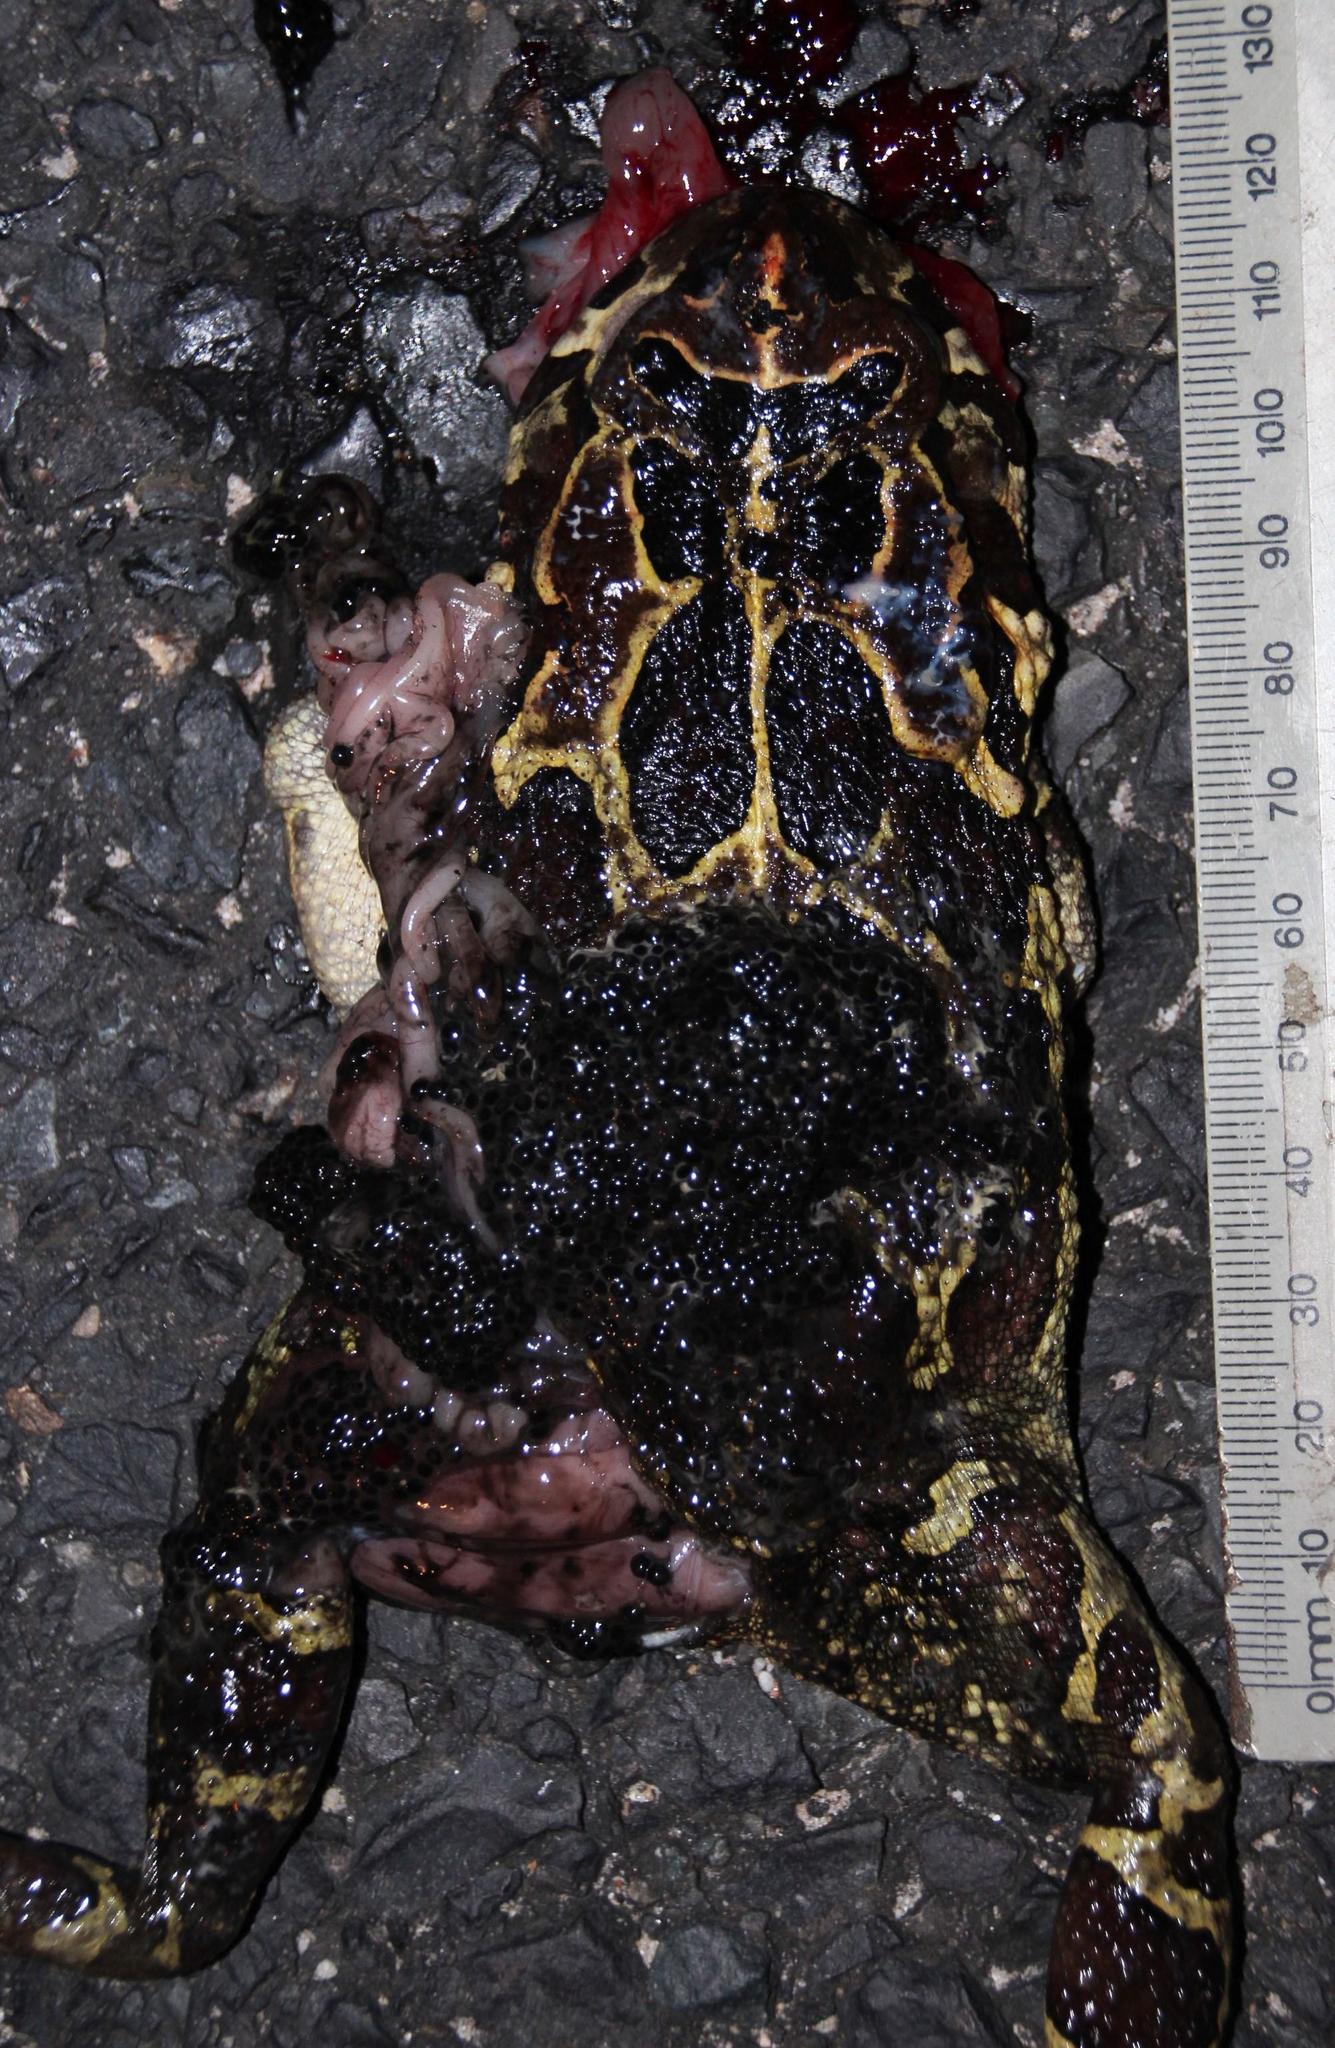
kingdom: Animalia
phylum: Chordata
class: Amphibia
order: Anura
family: Bufonidae
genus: Sclerophrys
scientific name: Sclerophrys pantherina
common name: Panther toad
